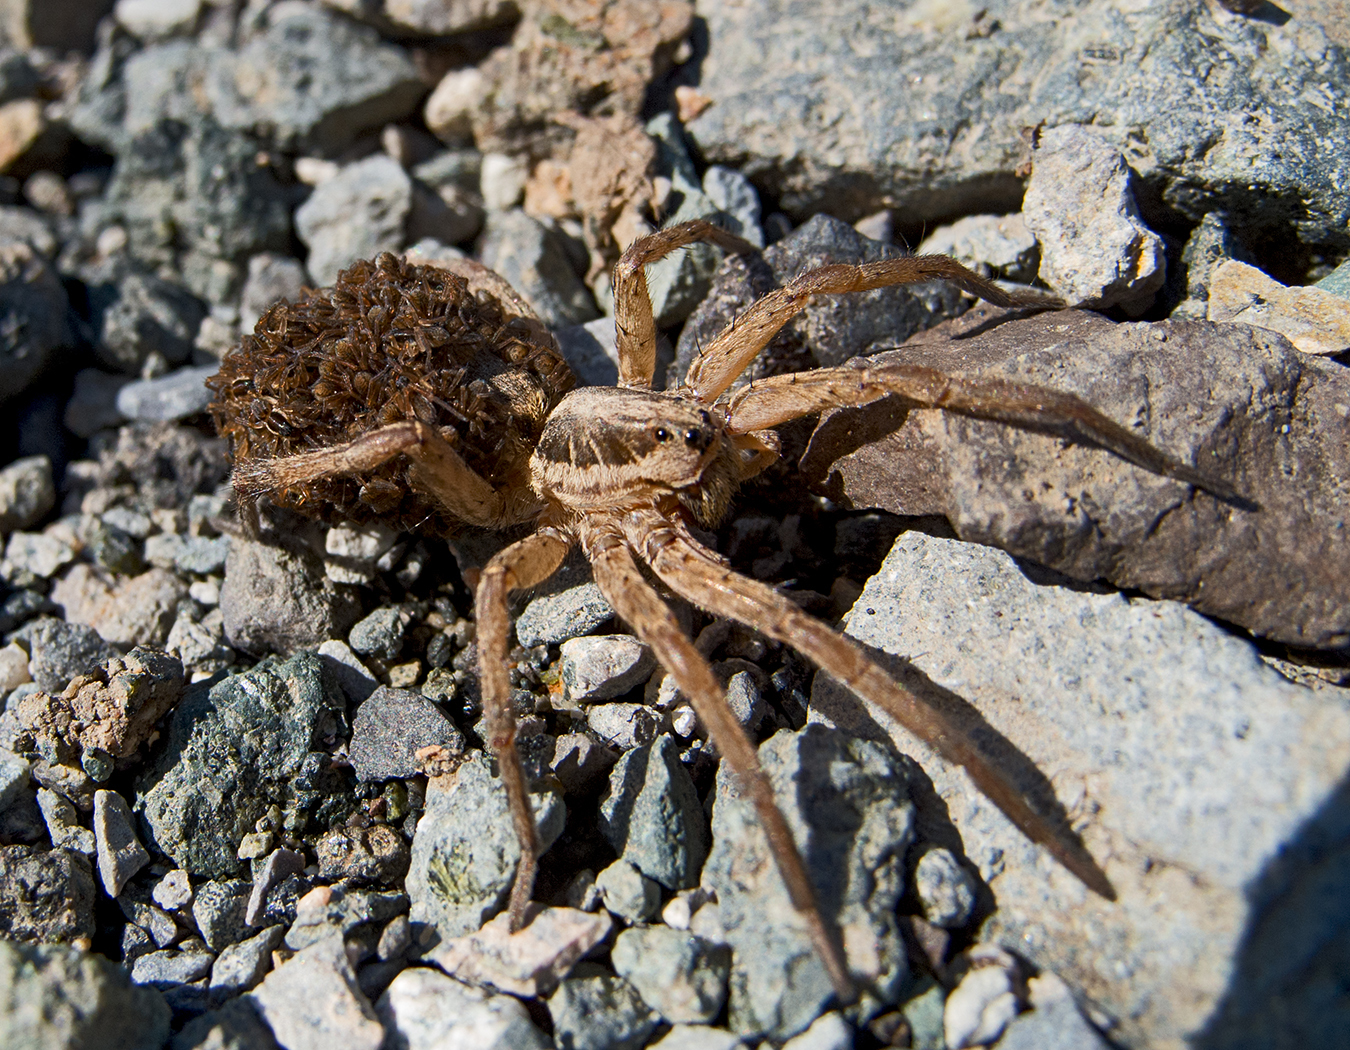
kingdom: Animalia
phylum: Arthropoda
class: Arachnida
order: Araneae
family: Lycosidae
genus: Hogna
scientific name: Hogna radiata
